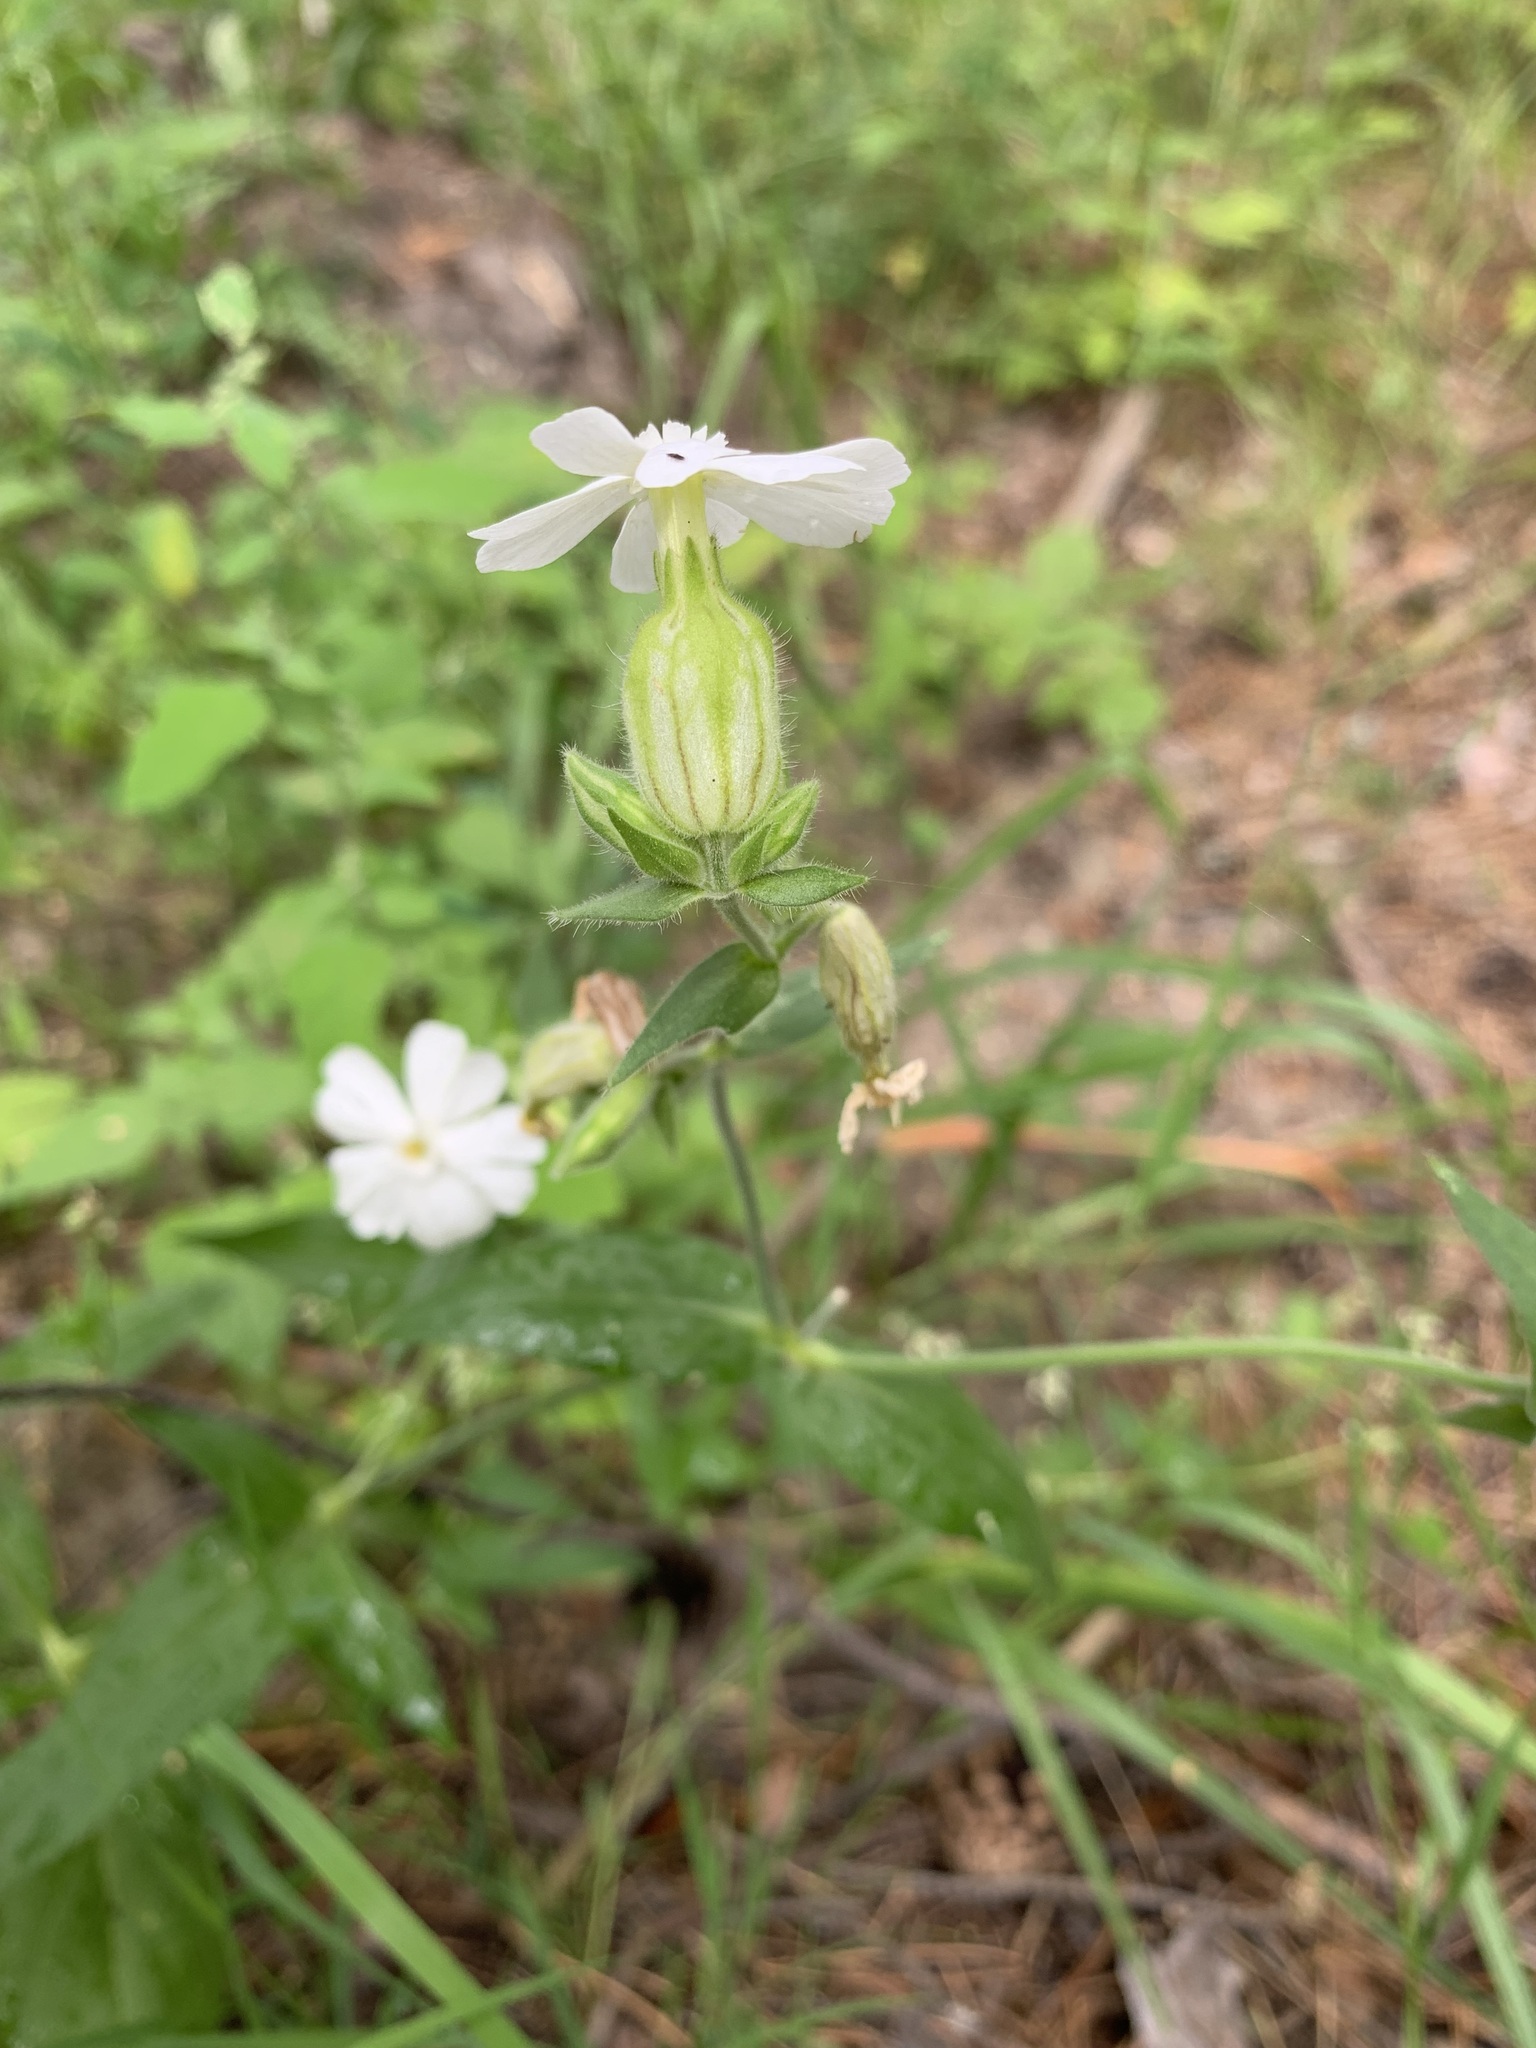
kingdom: Plantae
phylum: Tracheophyta
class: Magnoliopsida
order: Caryophyllales
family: Caryophyllaceae
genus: Silene
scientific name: Silene latifolia
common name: White campion
